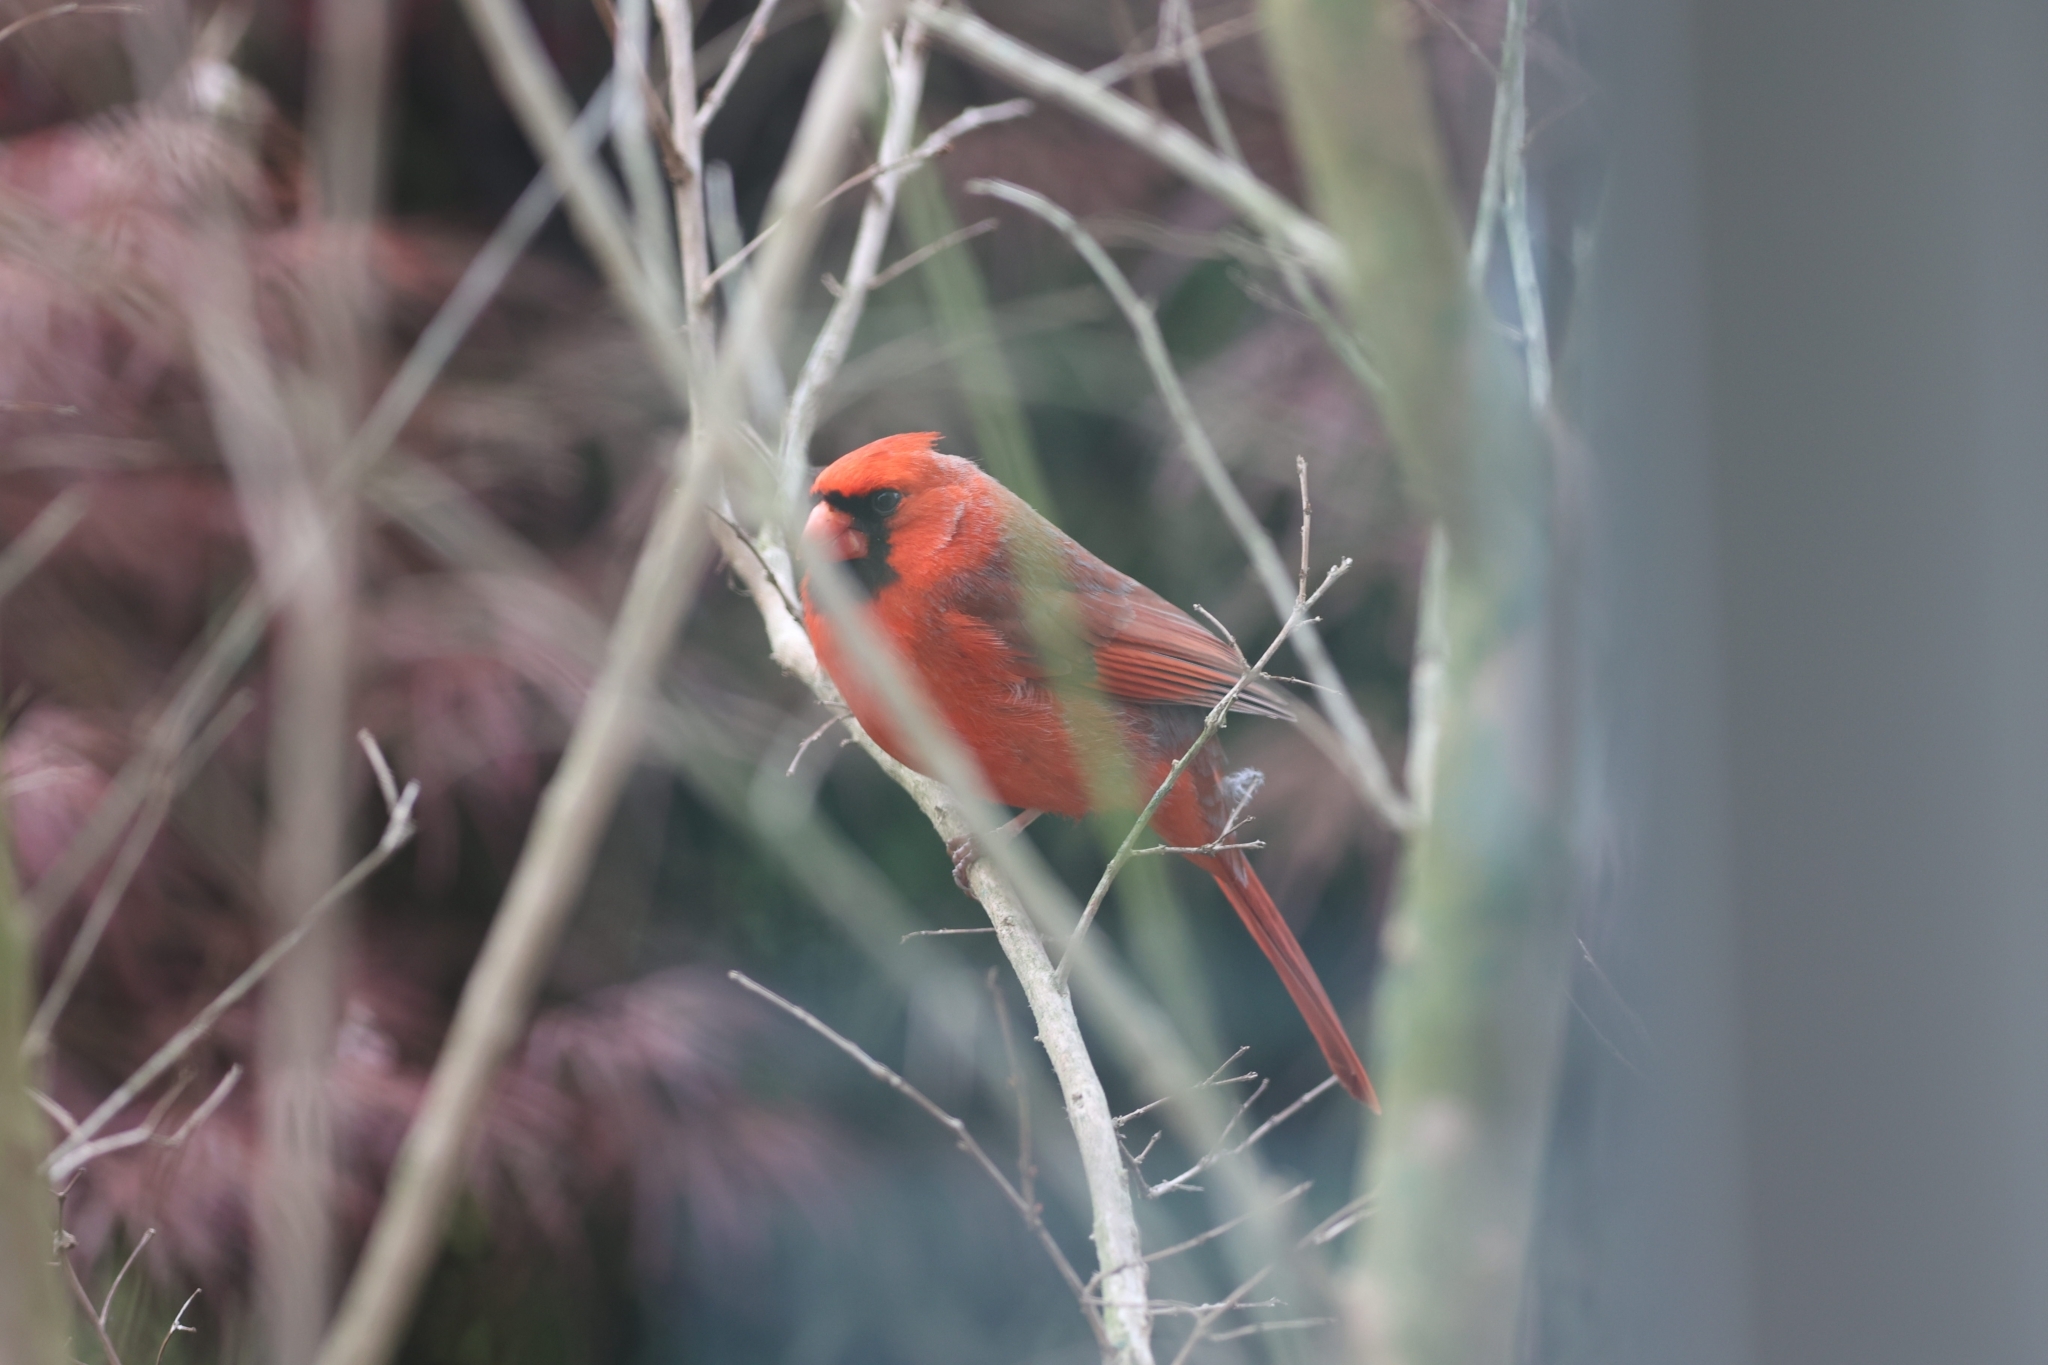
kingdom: Animalia
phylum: Chordata
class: Aves
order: Passeriformes
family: Cardinalidae
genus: Cardinalis
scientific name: Cardinalis cardinalis
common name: Northern cardinal
